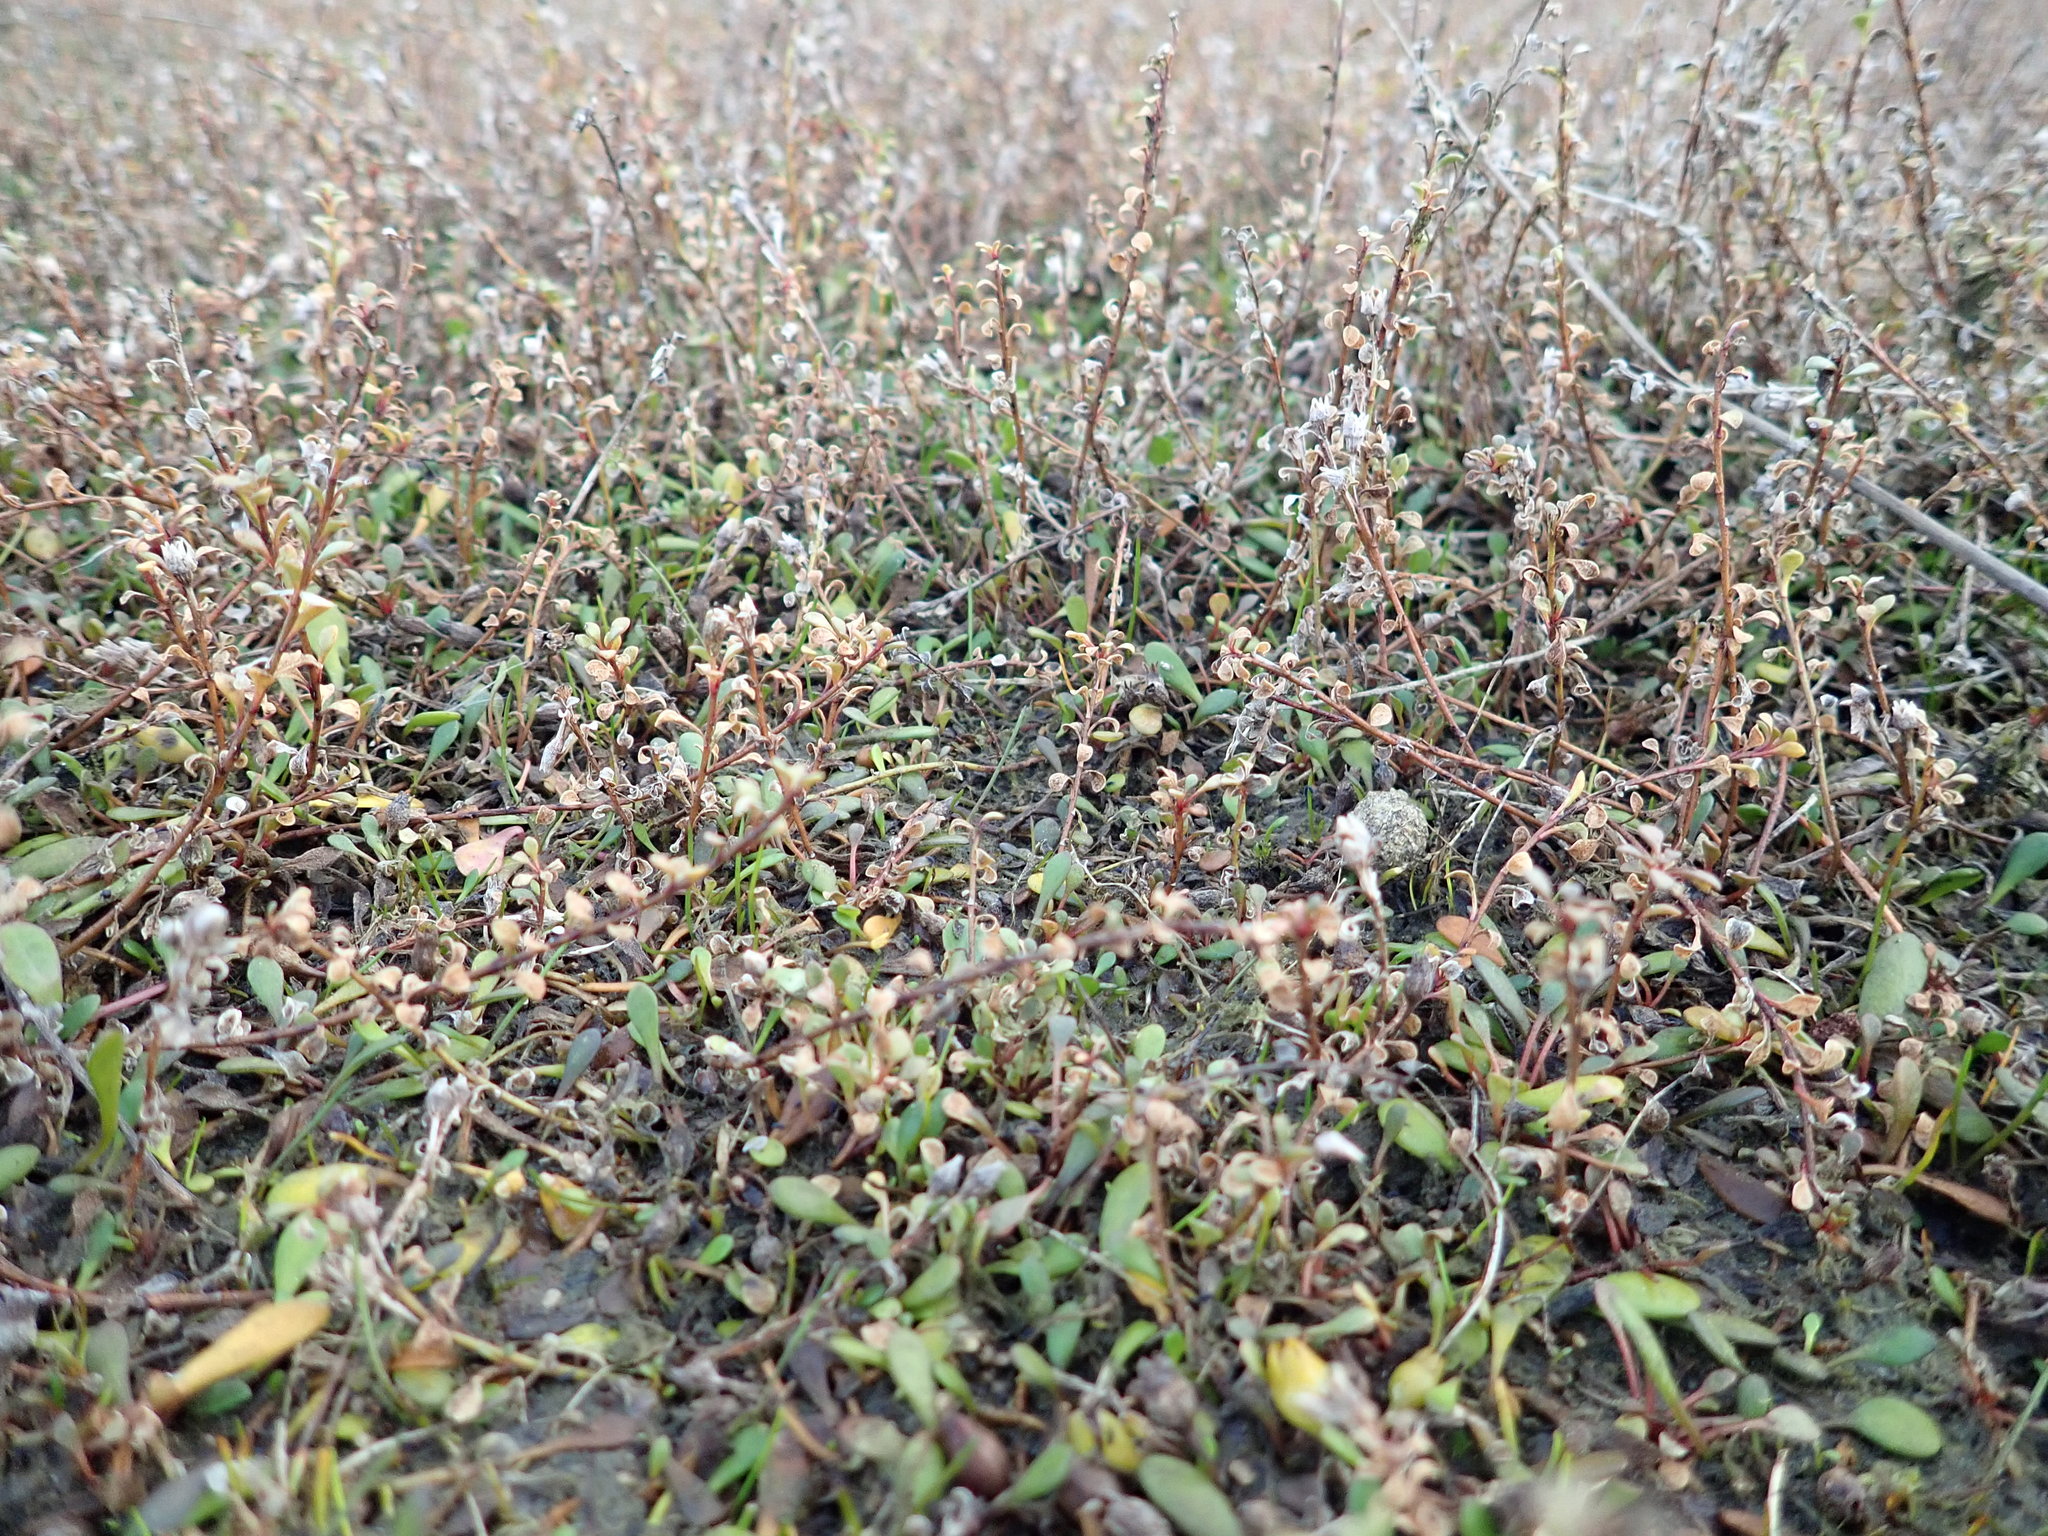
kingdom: Plantae
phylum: Tracheophyta
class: Magnoliopsida
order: Ericales
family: Primulaceae
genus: Samolus
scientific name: Samolus repens
